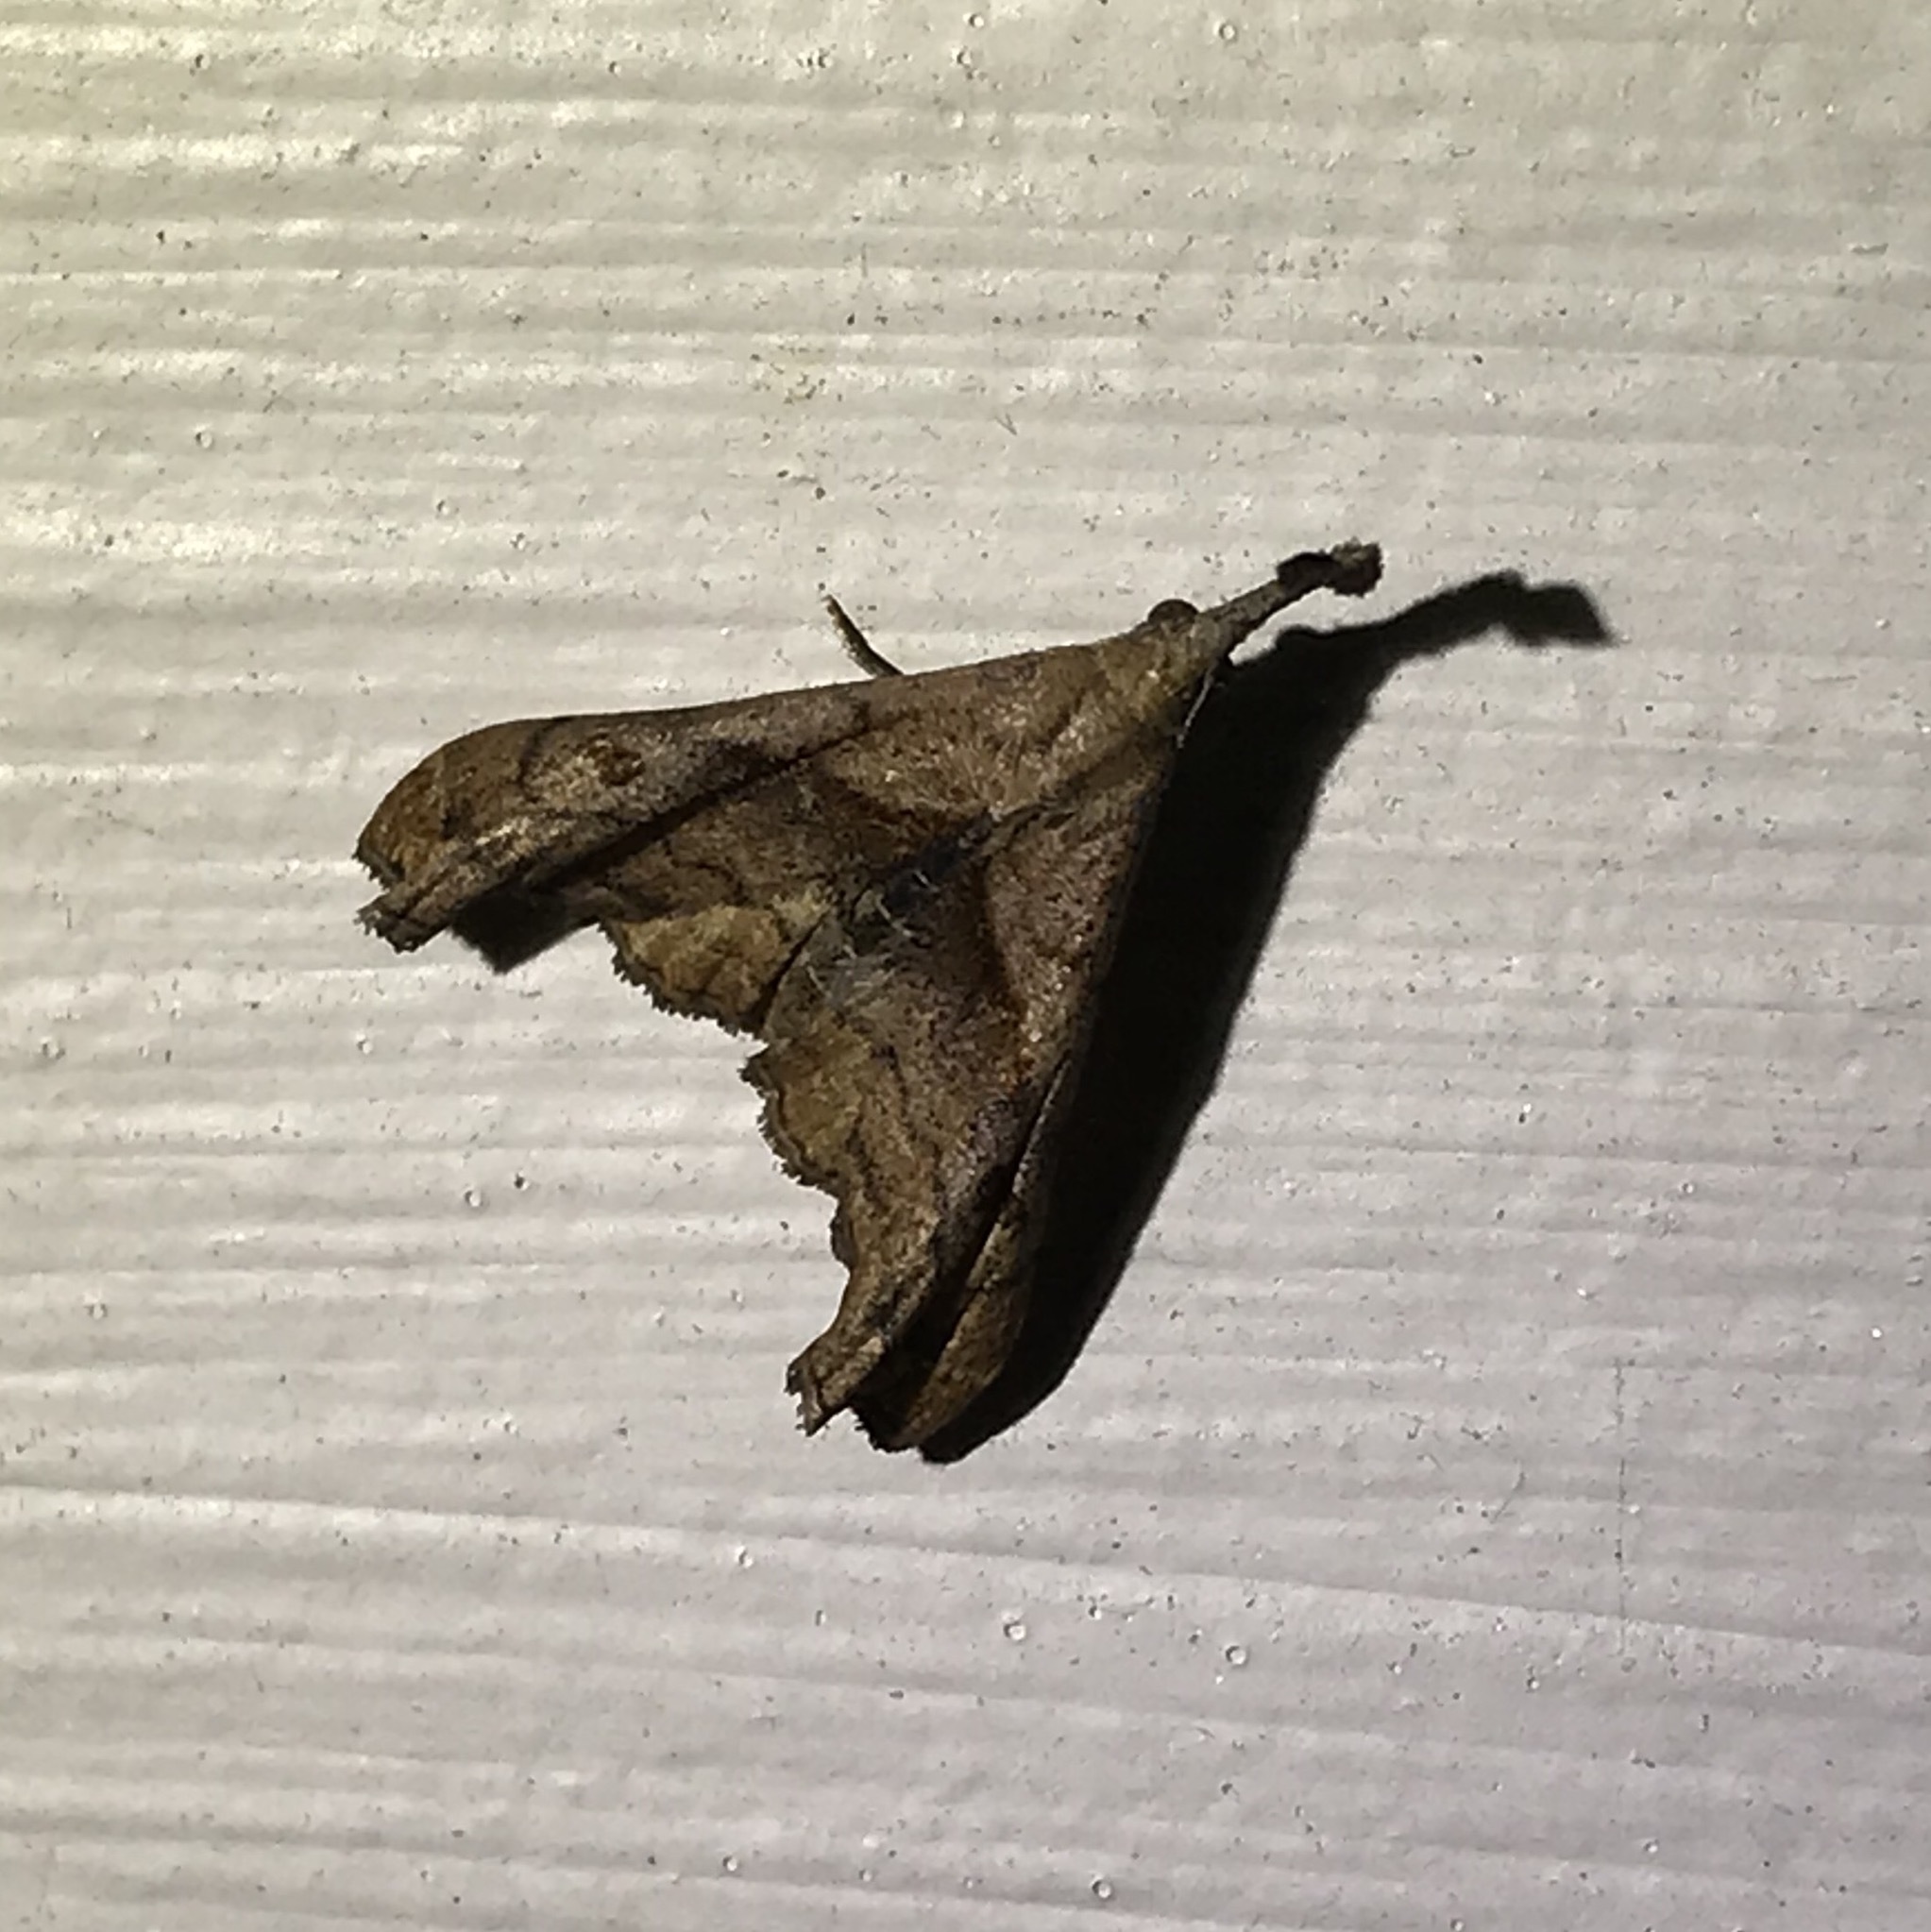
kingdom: Animalia
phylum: Arthropoda
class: Insecta
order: Lepidoptera
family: Erebidae
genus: Palthis
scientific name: Palthis angulalis
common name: Dark-spotted palthis moth
